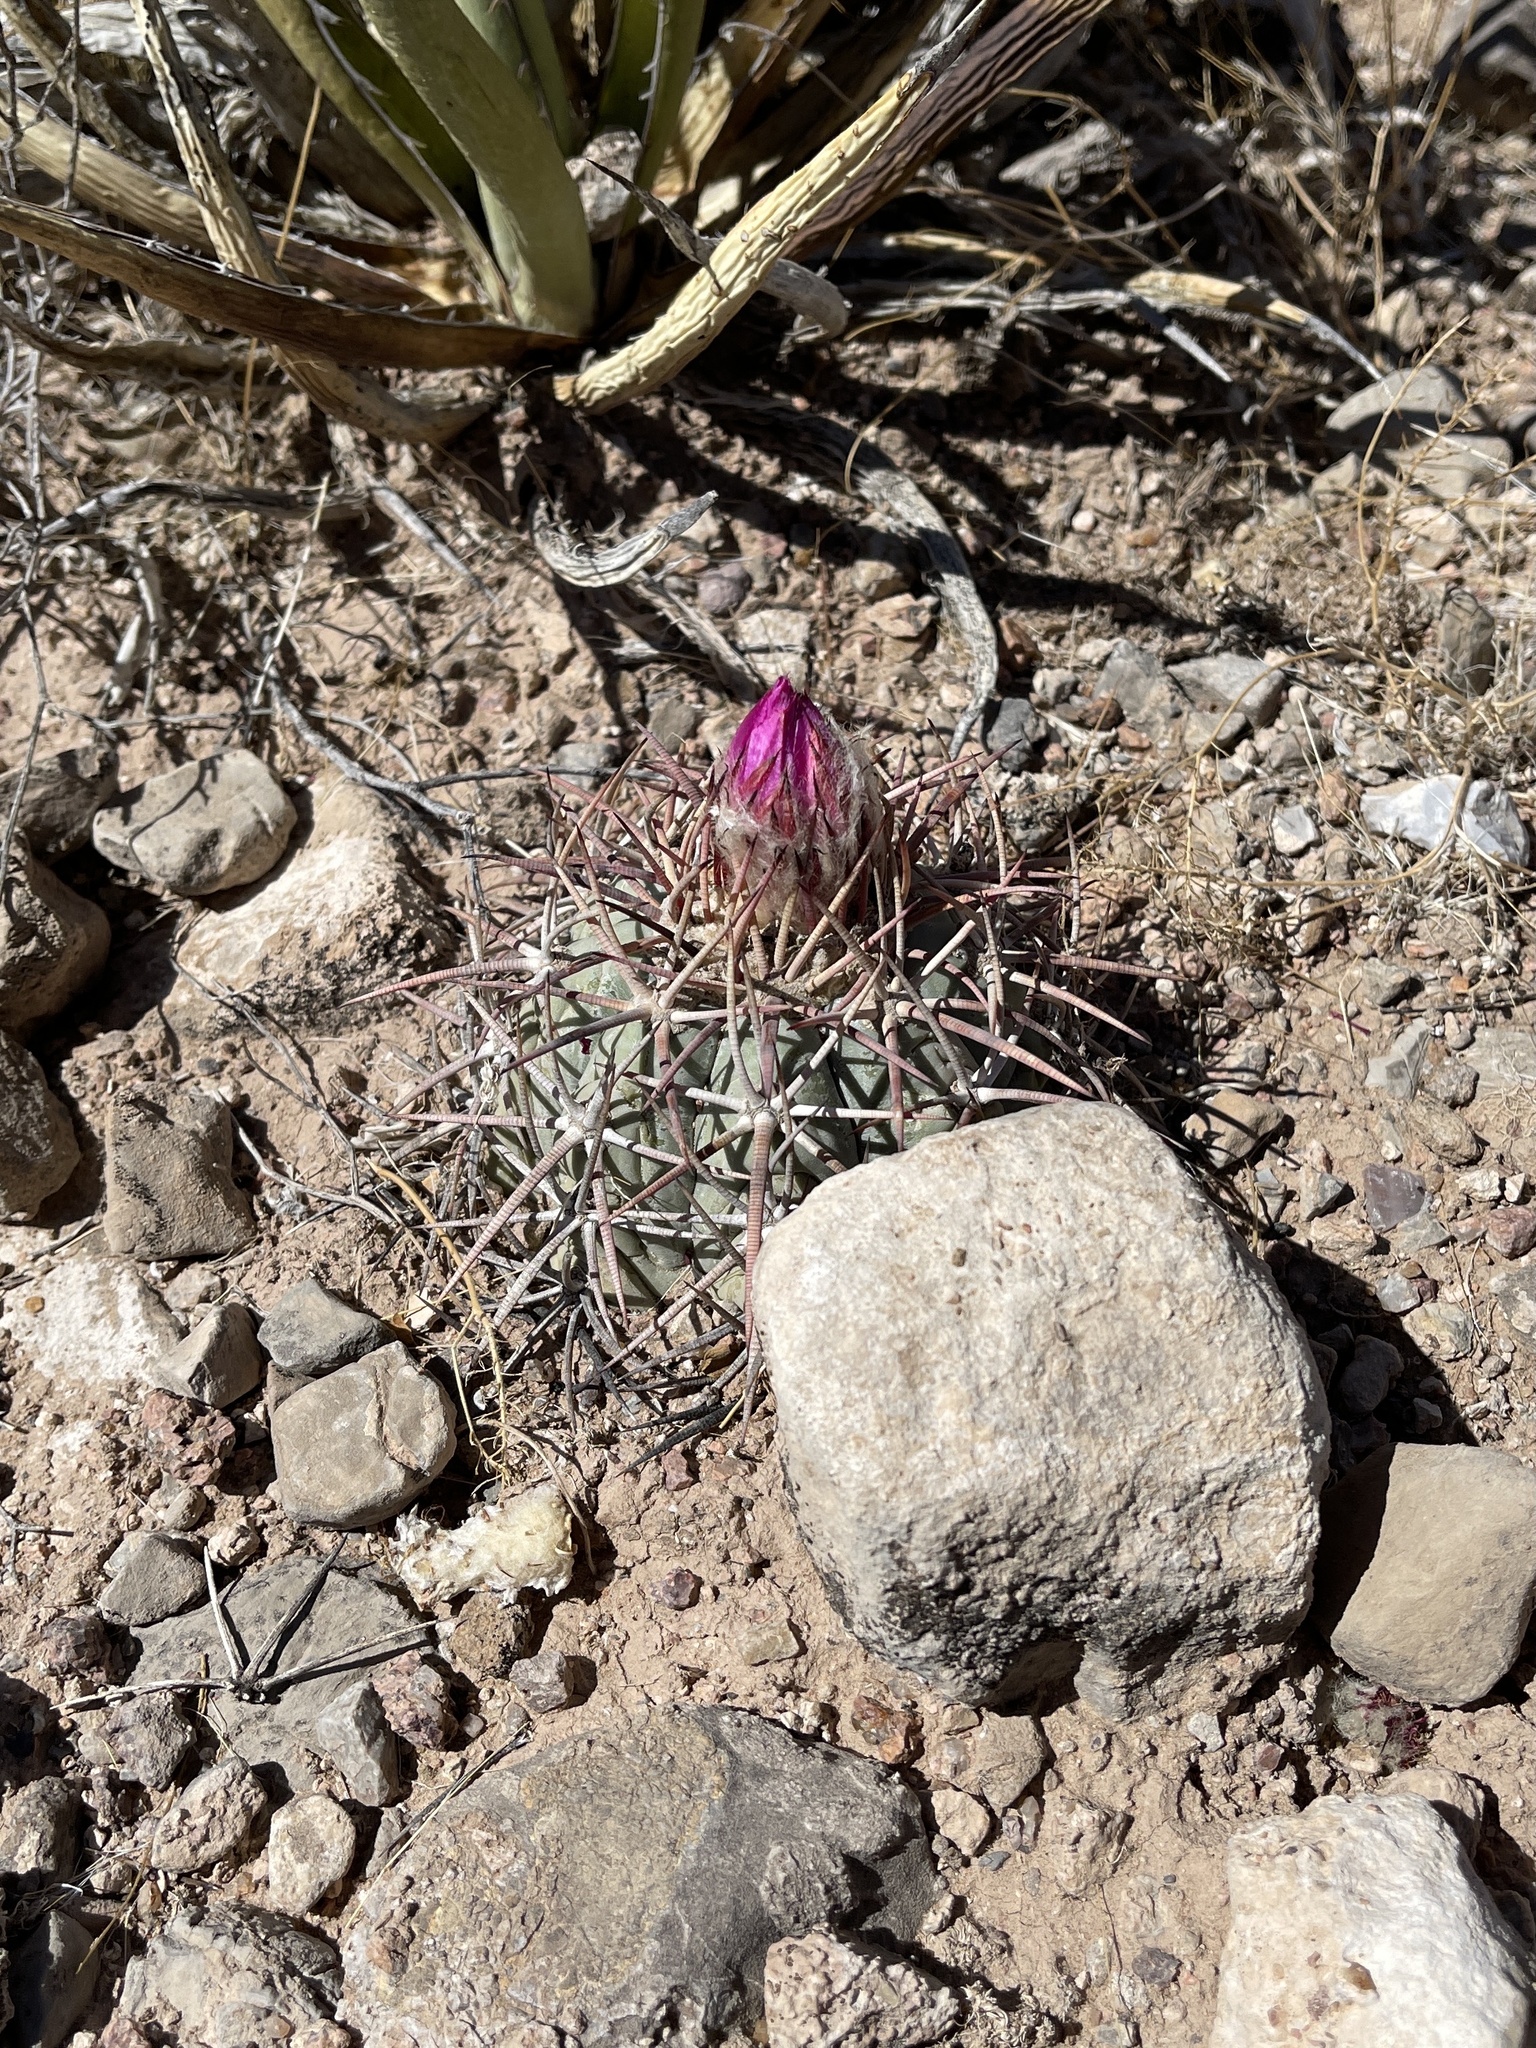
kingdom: Plantae
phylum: Tracheophyta
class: Magnoliopsida
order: Caryophyllales
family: Cactaceae
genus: Echinocactus
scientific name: Echinocactus horizonthalonius
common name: Devilshead
